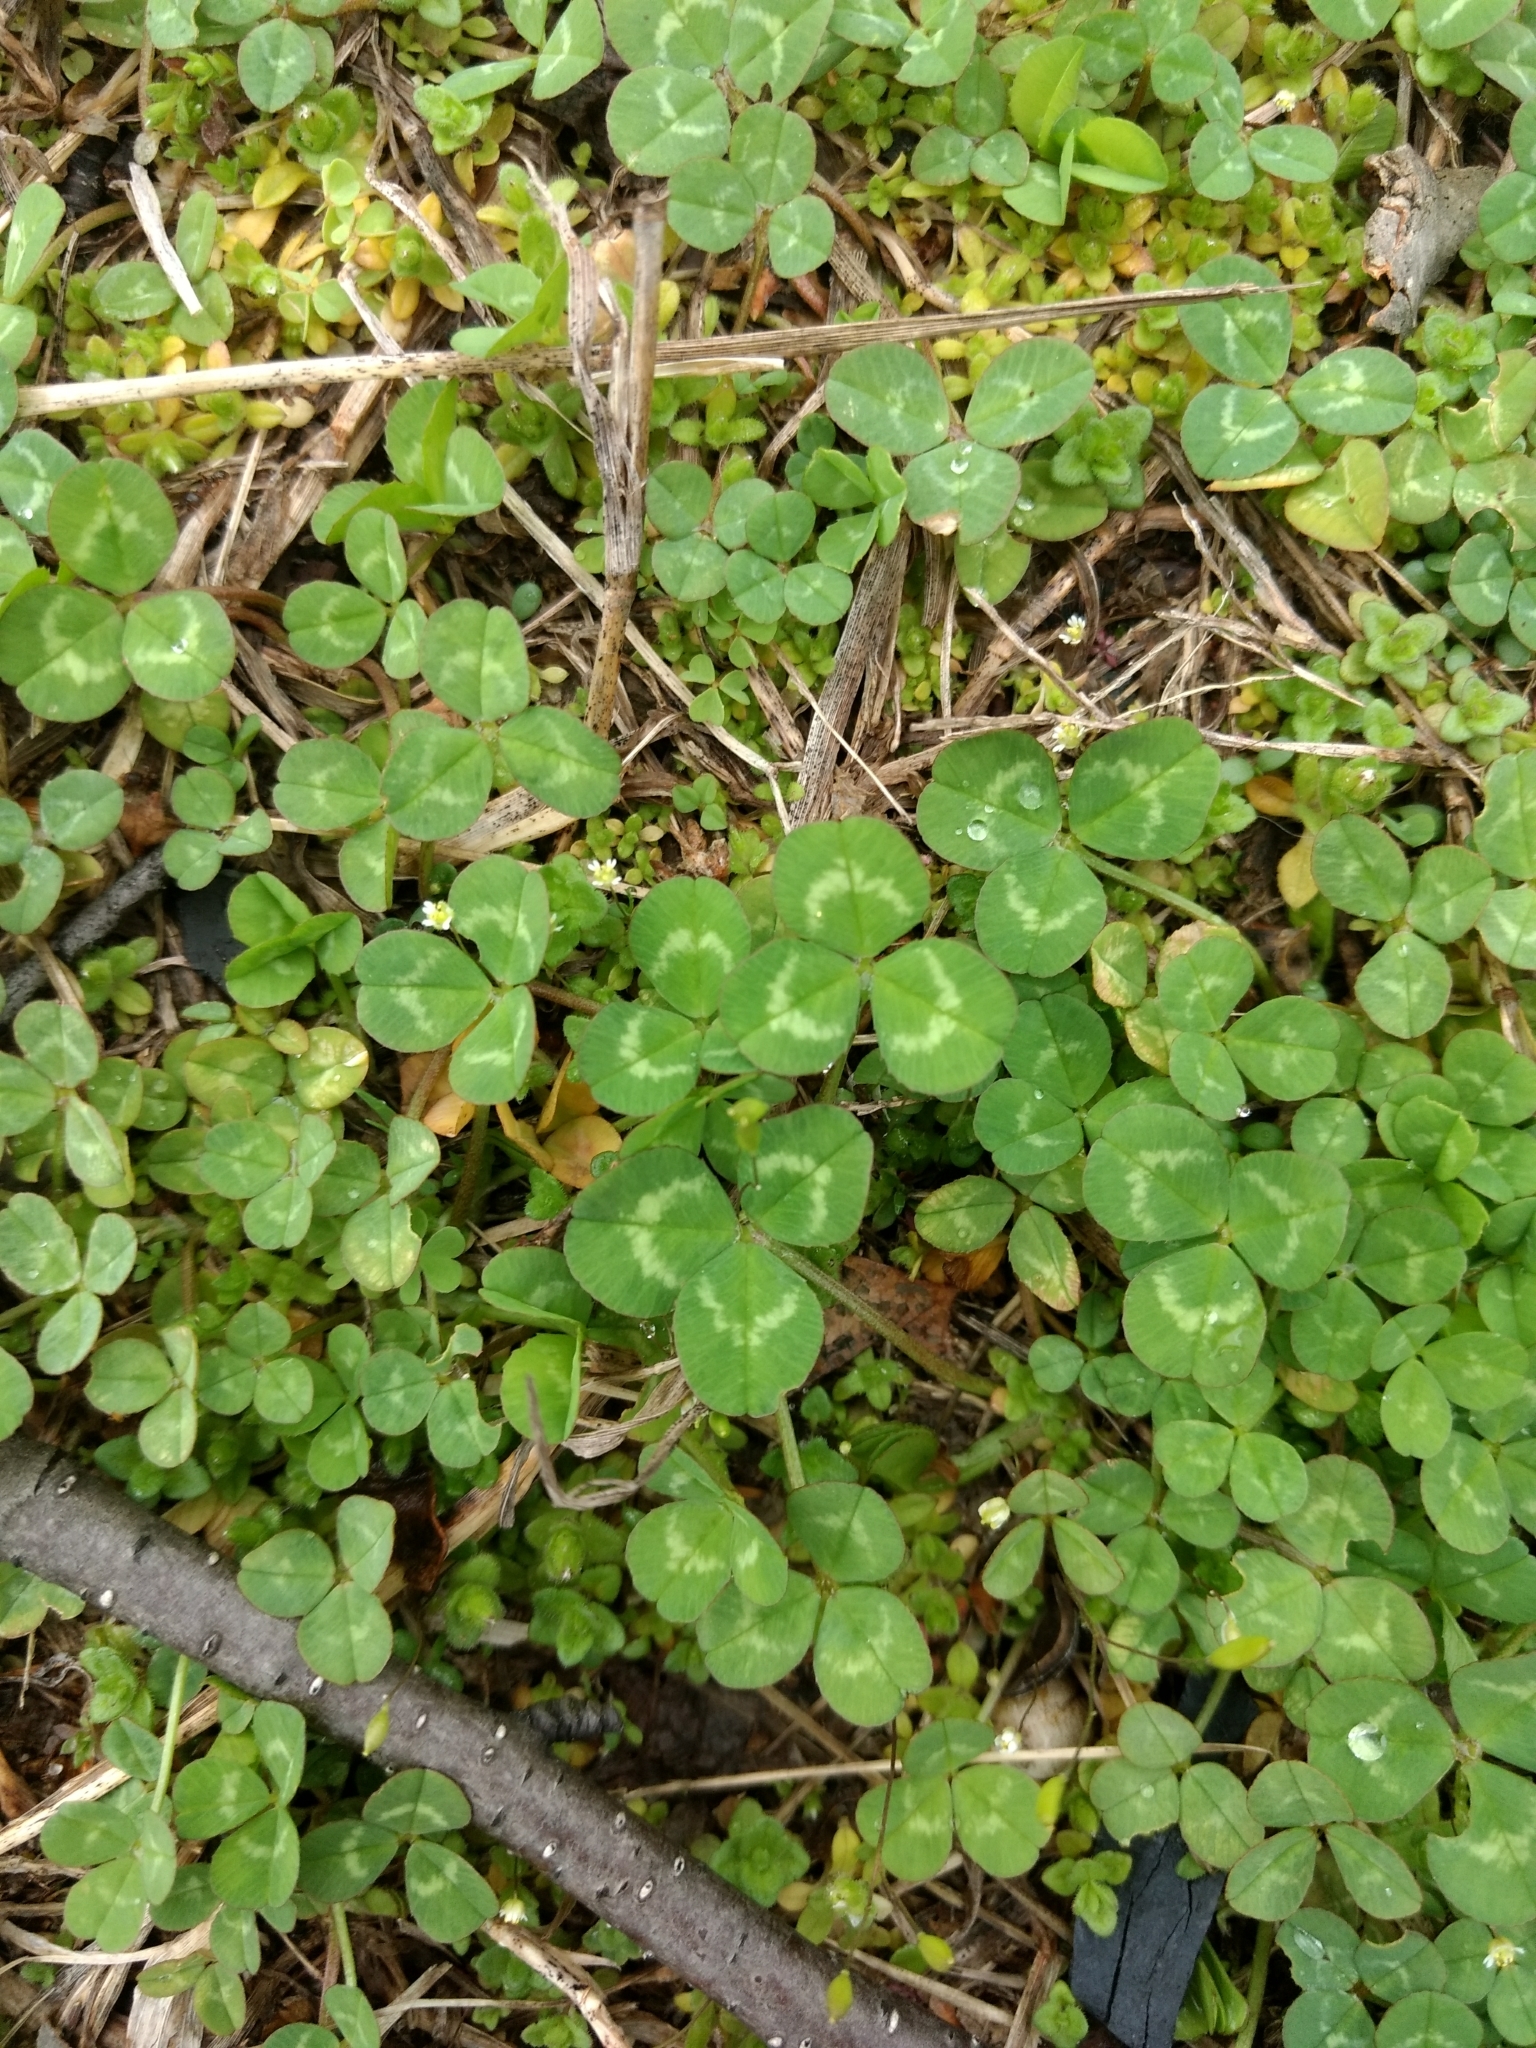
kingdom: Plantae
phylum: Tracheophyta
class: Magnoliopsida
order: Fabales
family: Fabaceae
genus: Trifolium
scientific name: Trifolium repens
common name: White clover
